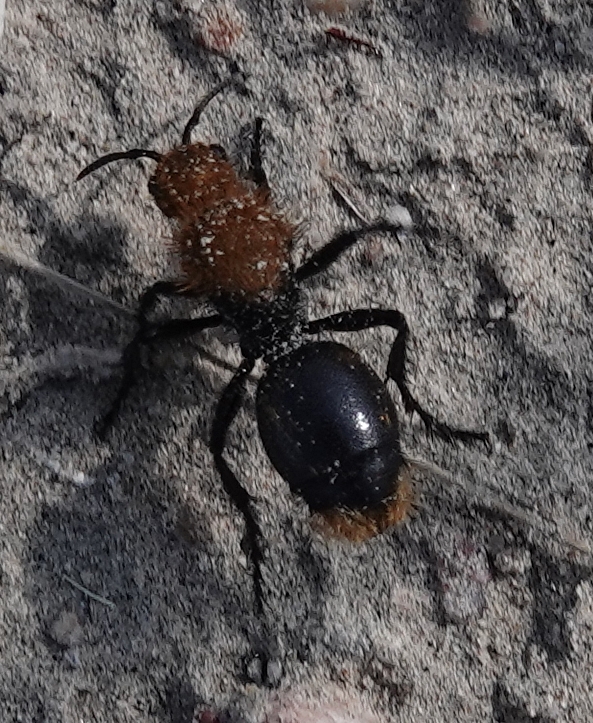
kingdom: Animalia
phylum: Arthropoda
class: Insecta
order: Hymenoptera
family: Mutillidae
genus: Dasymutilla
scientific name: Dasymutilla occidentalis
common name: Common eastern velvet ant
